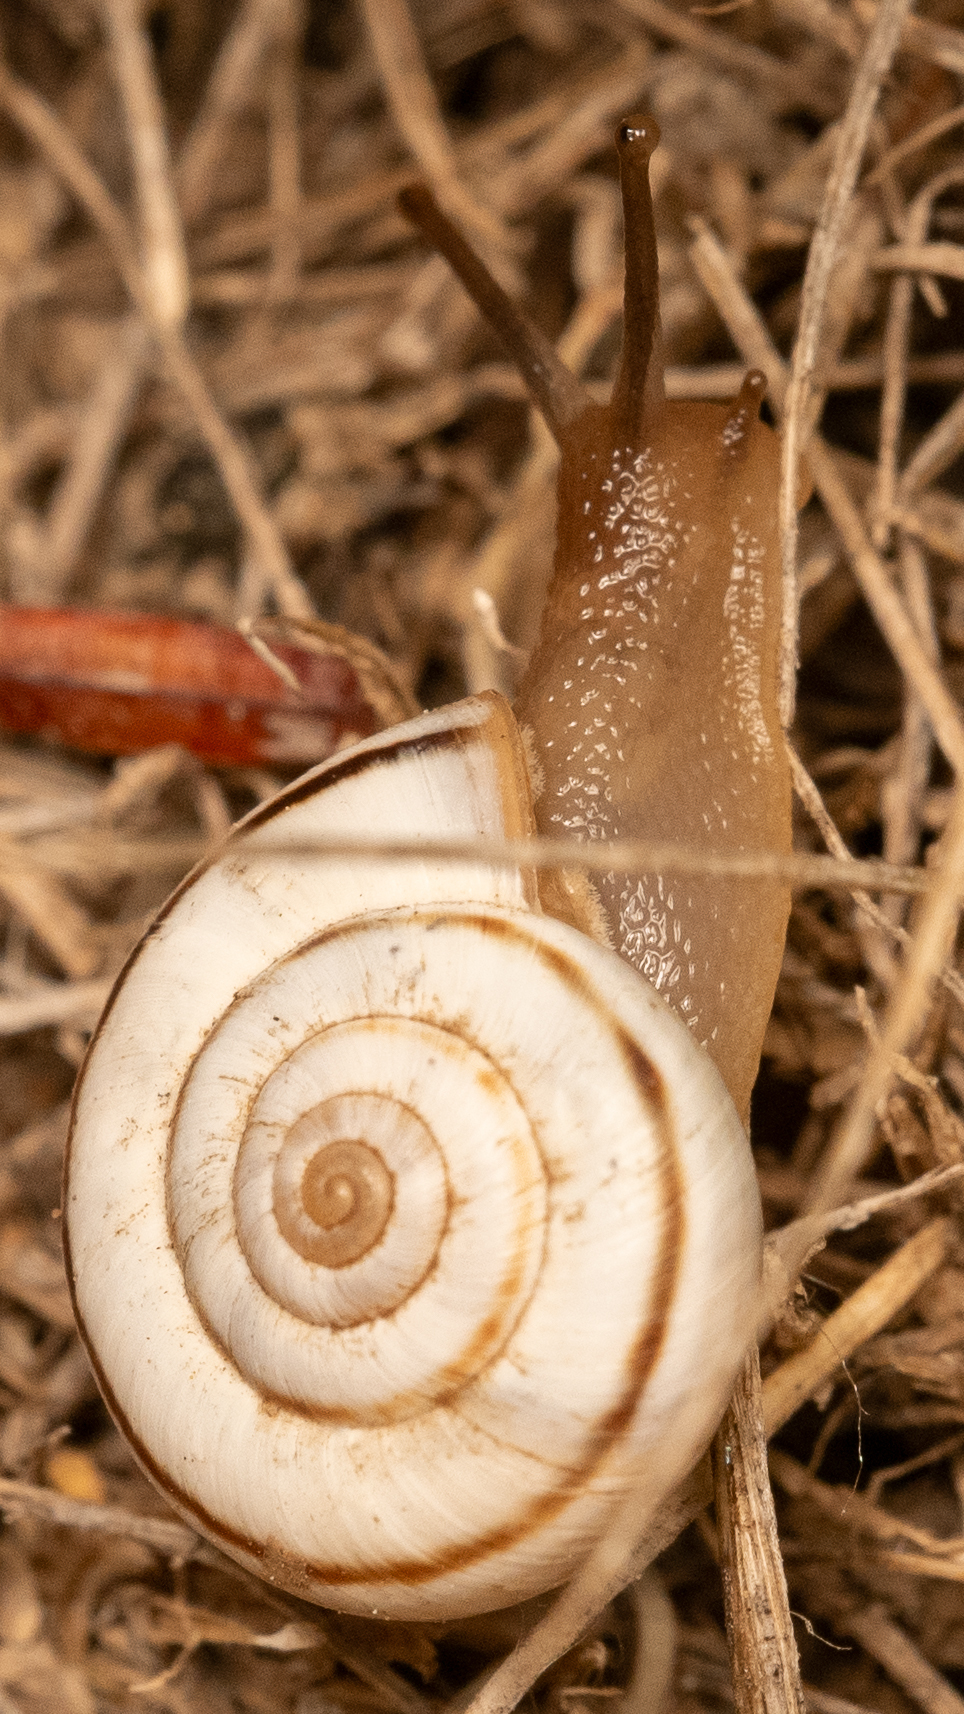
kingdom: Animalia
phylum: Mollusca
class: Gastropoda
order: Stylommatophora
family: Geomitridae
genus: Xerolenta
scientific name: Xerolenta obvia
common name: White heath snail
